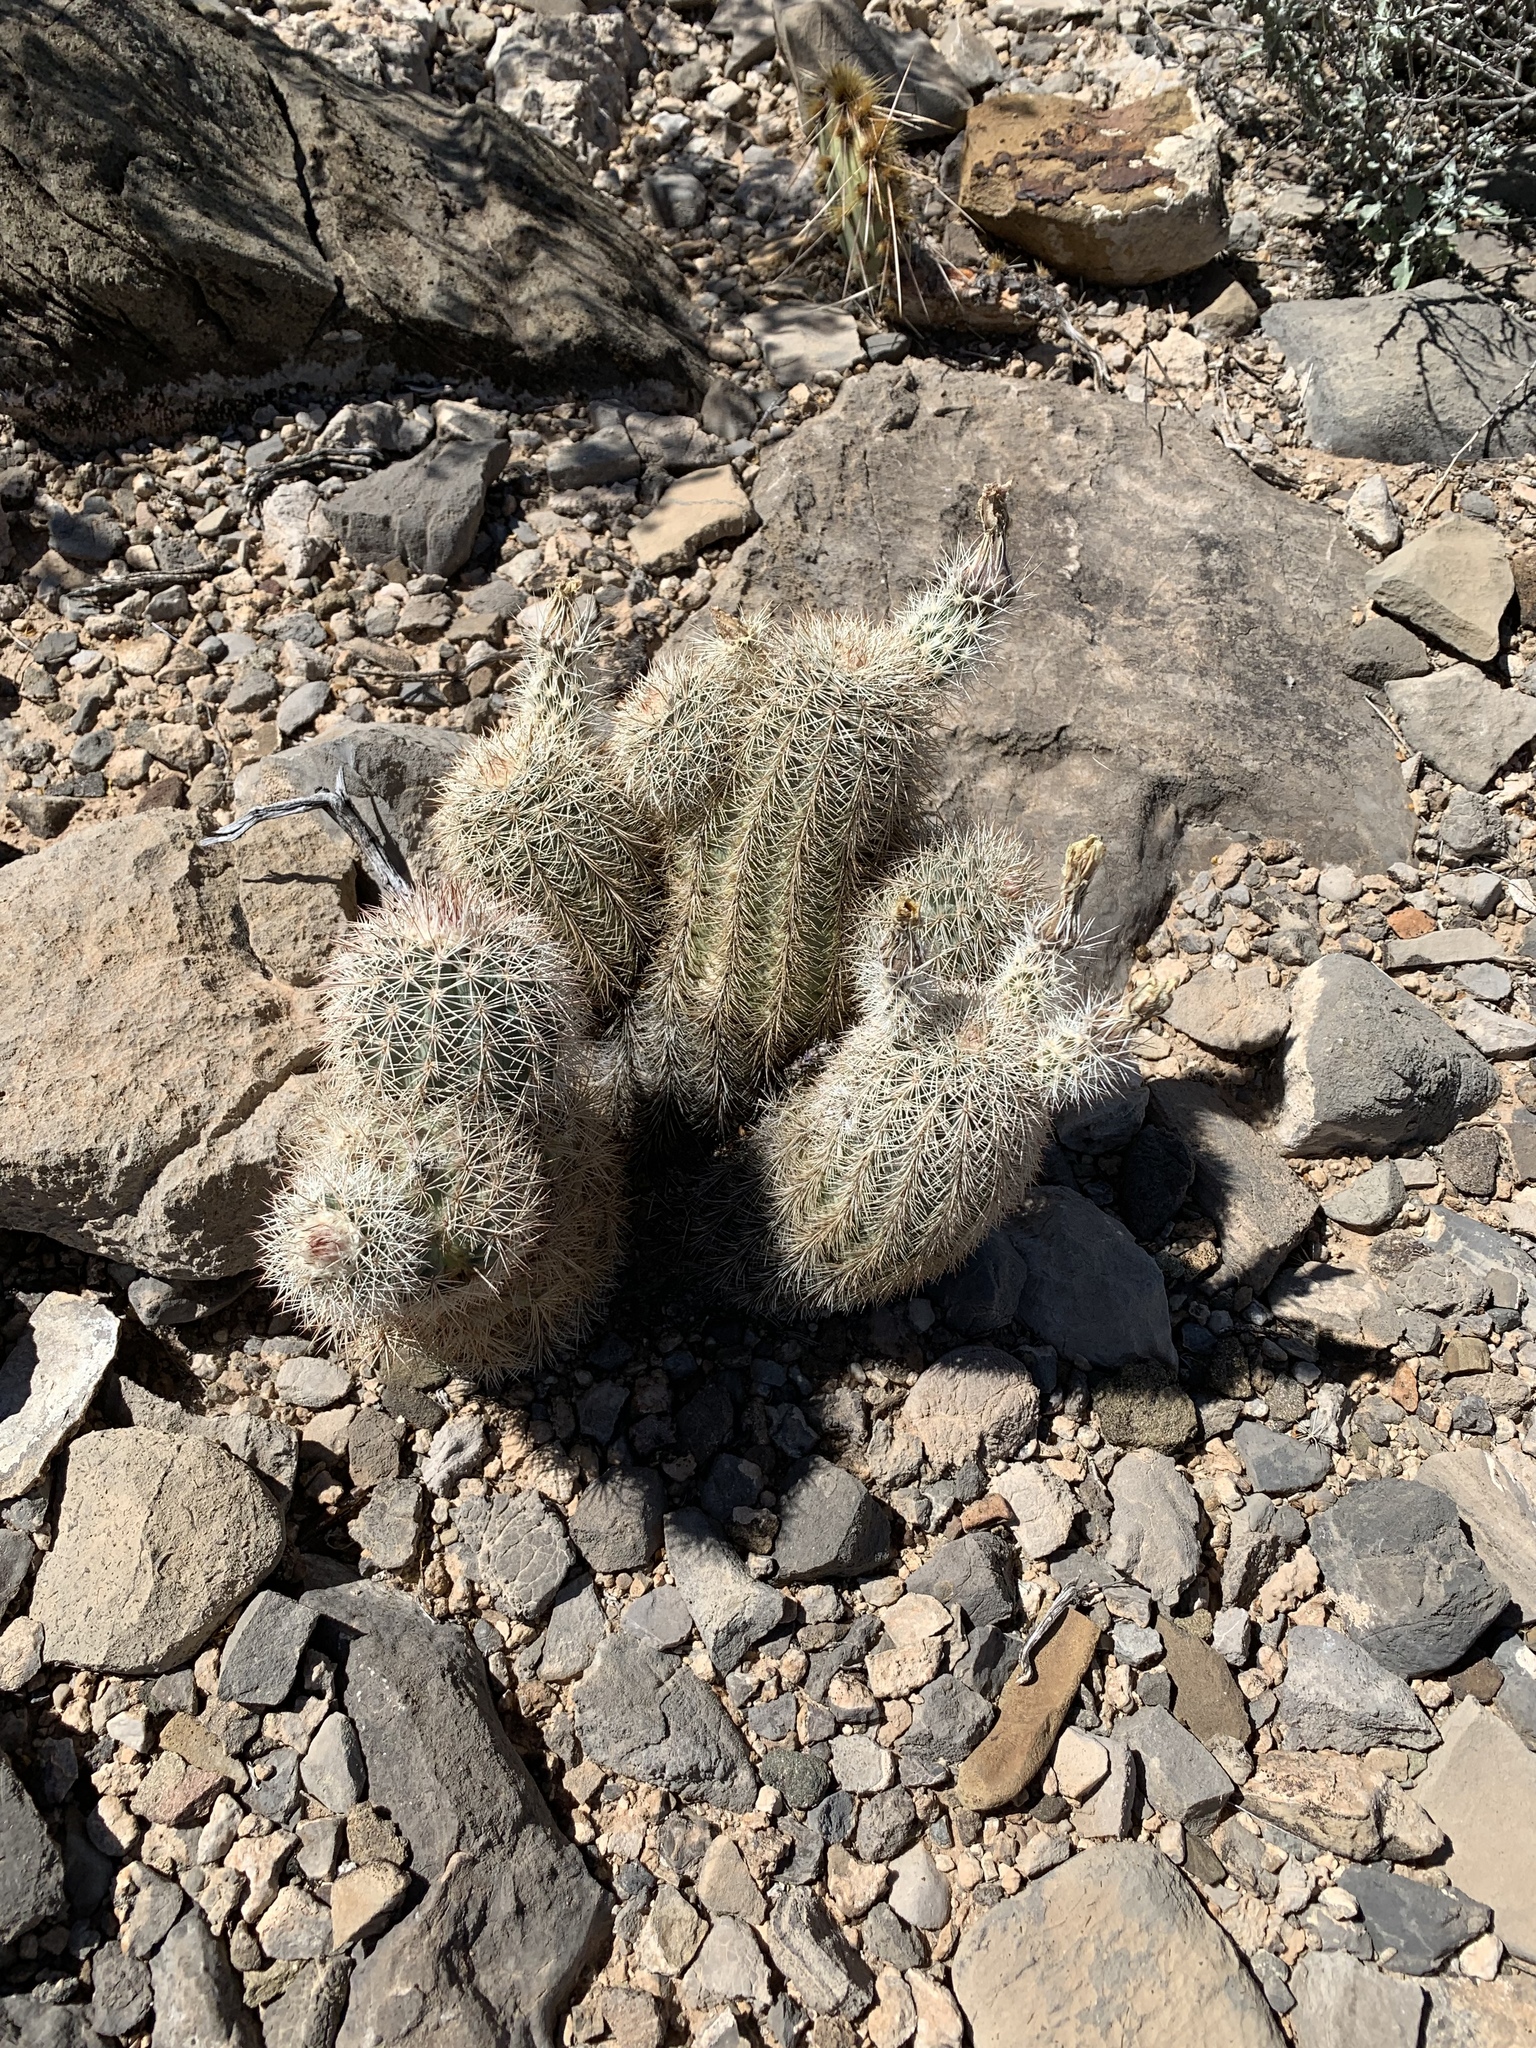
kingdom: Plantae
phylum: Tracheophyta
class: Magnoliopsida
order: Caryophyllales
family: Cactaceae
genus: Echinocereus
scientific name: Echinocereus dasyacanthus
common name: Spiny hedgehog cactus
